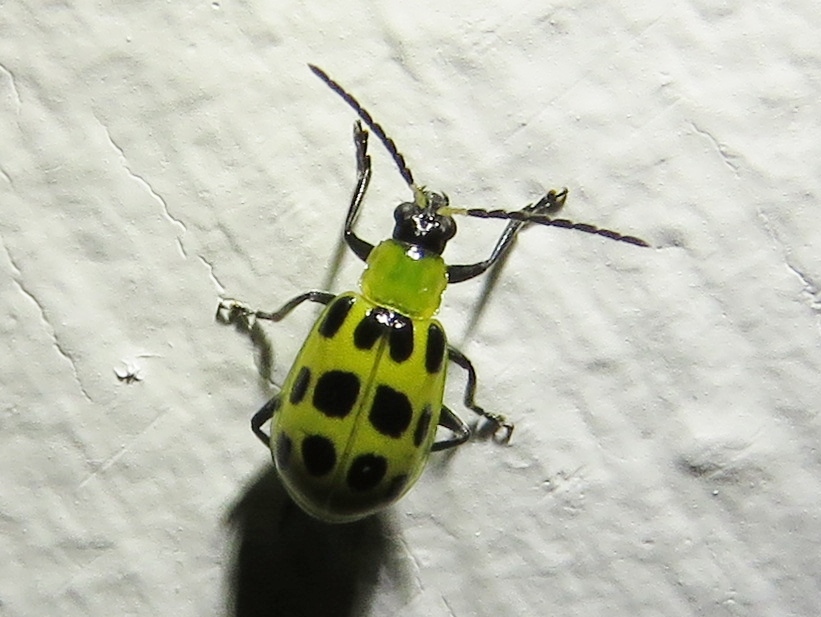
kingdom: Animalia
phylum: Arthropoda
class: Insecta
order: Coleoptera
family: Chrysomelidae
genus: Diabrotica
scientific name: Diabrotica undecimpunctata
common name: Spotted cucumber beetle
